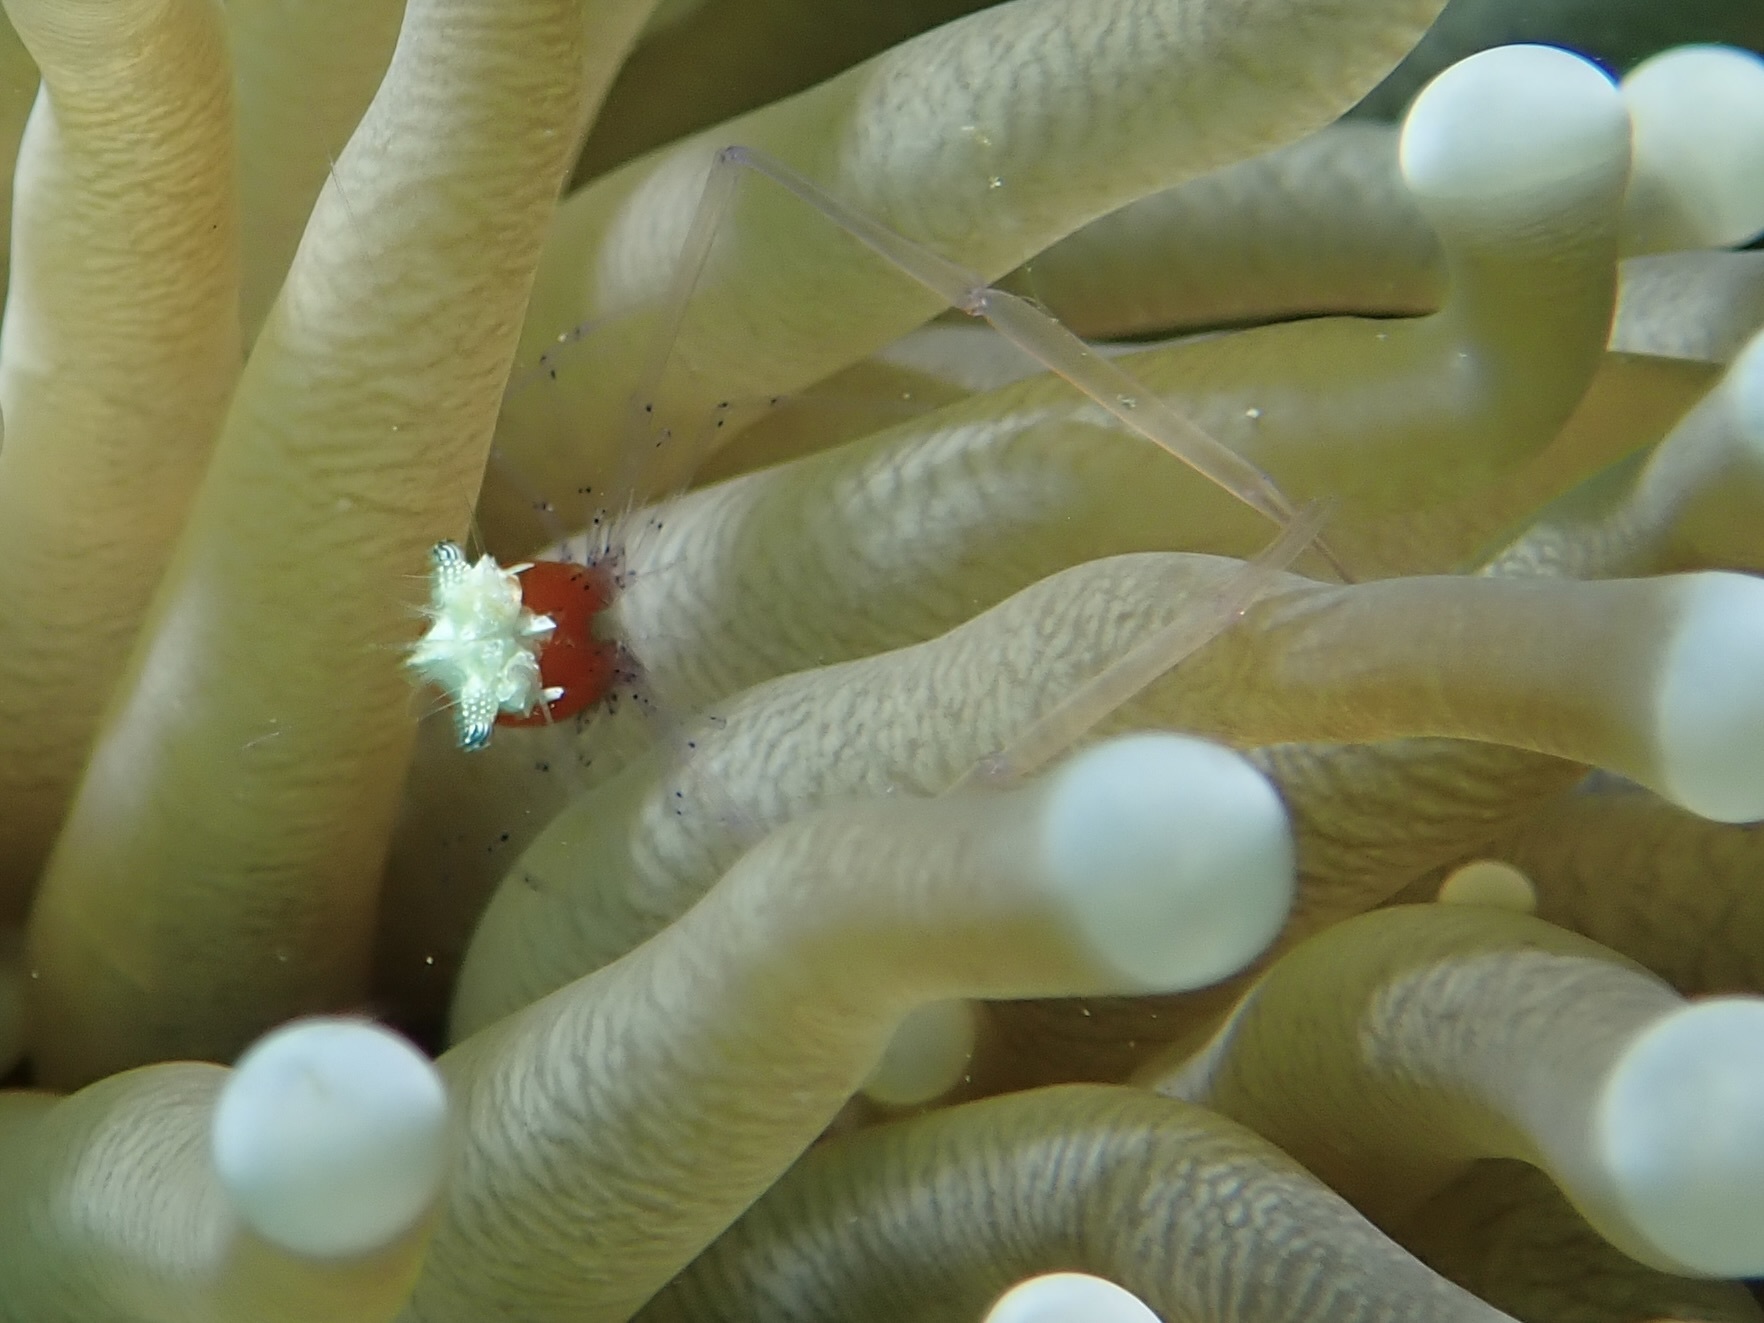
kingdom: Animalia
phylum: Arthropoda
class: Malacostraca
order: Decapoda
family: Palaemonidae
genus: Cuapetes
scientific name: Cuapetes kororensis
